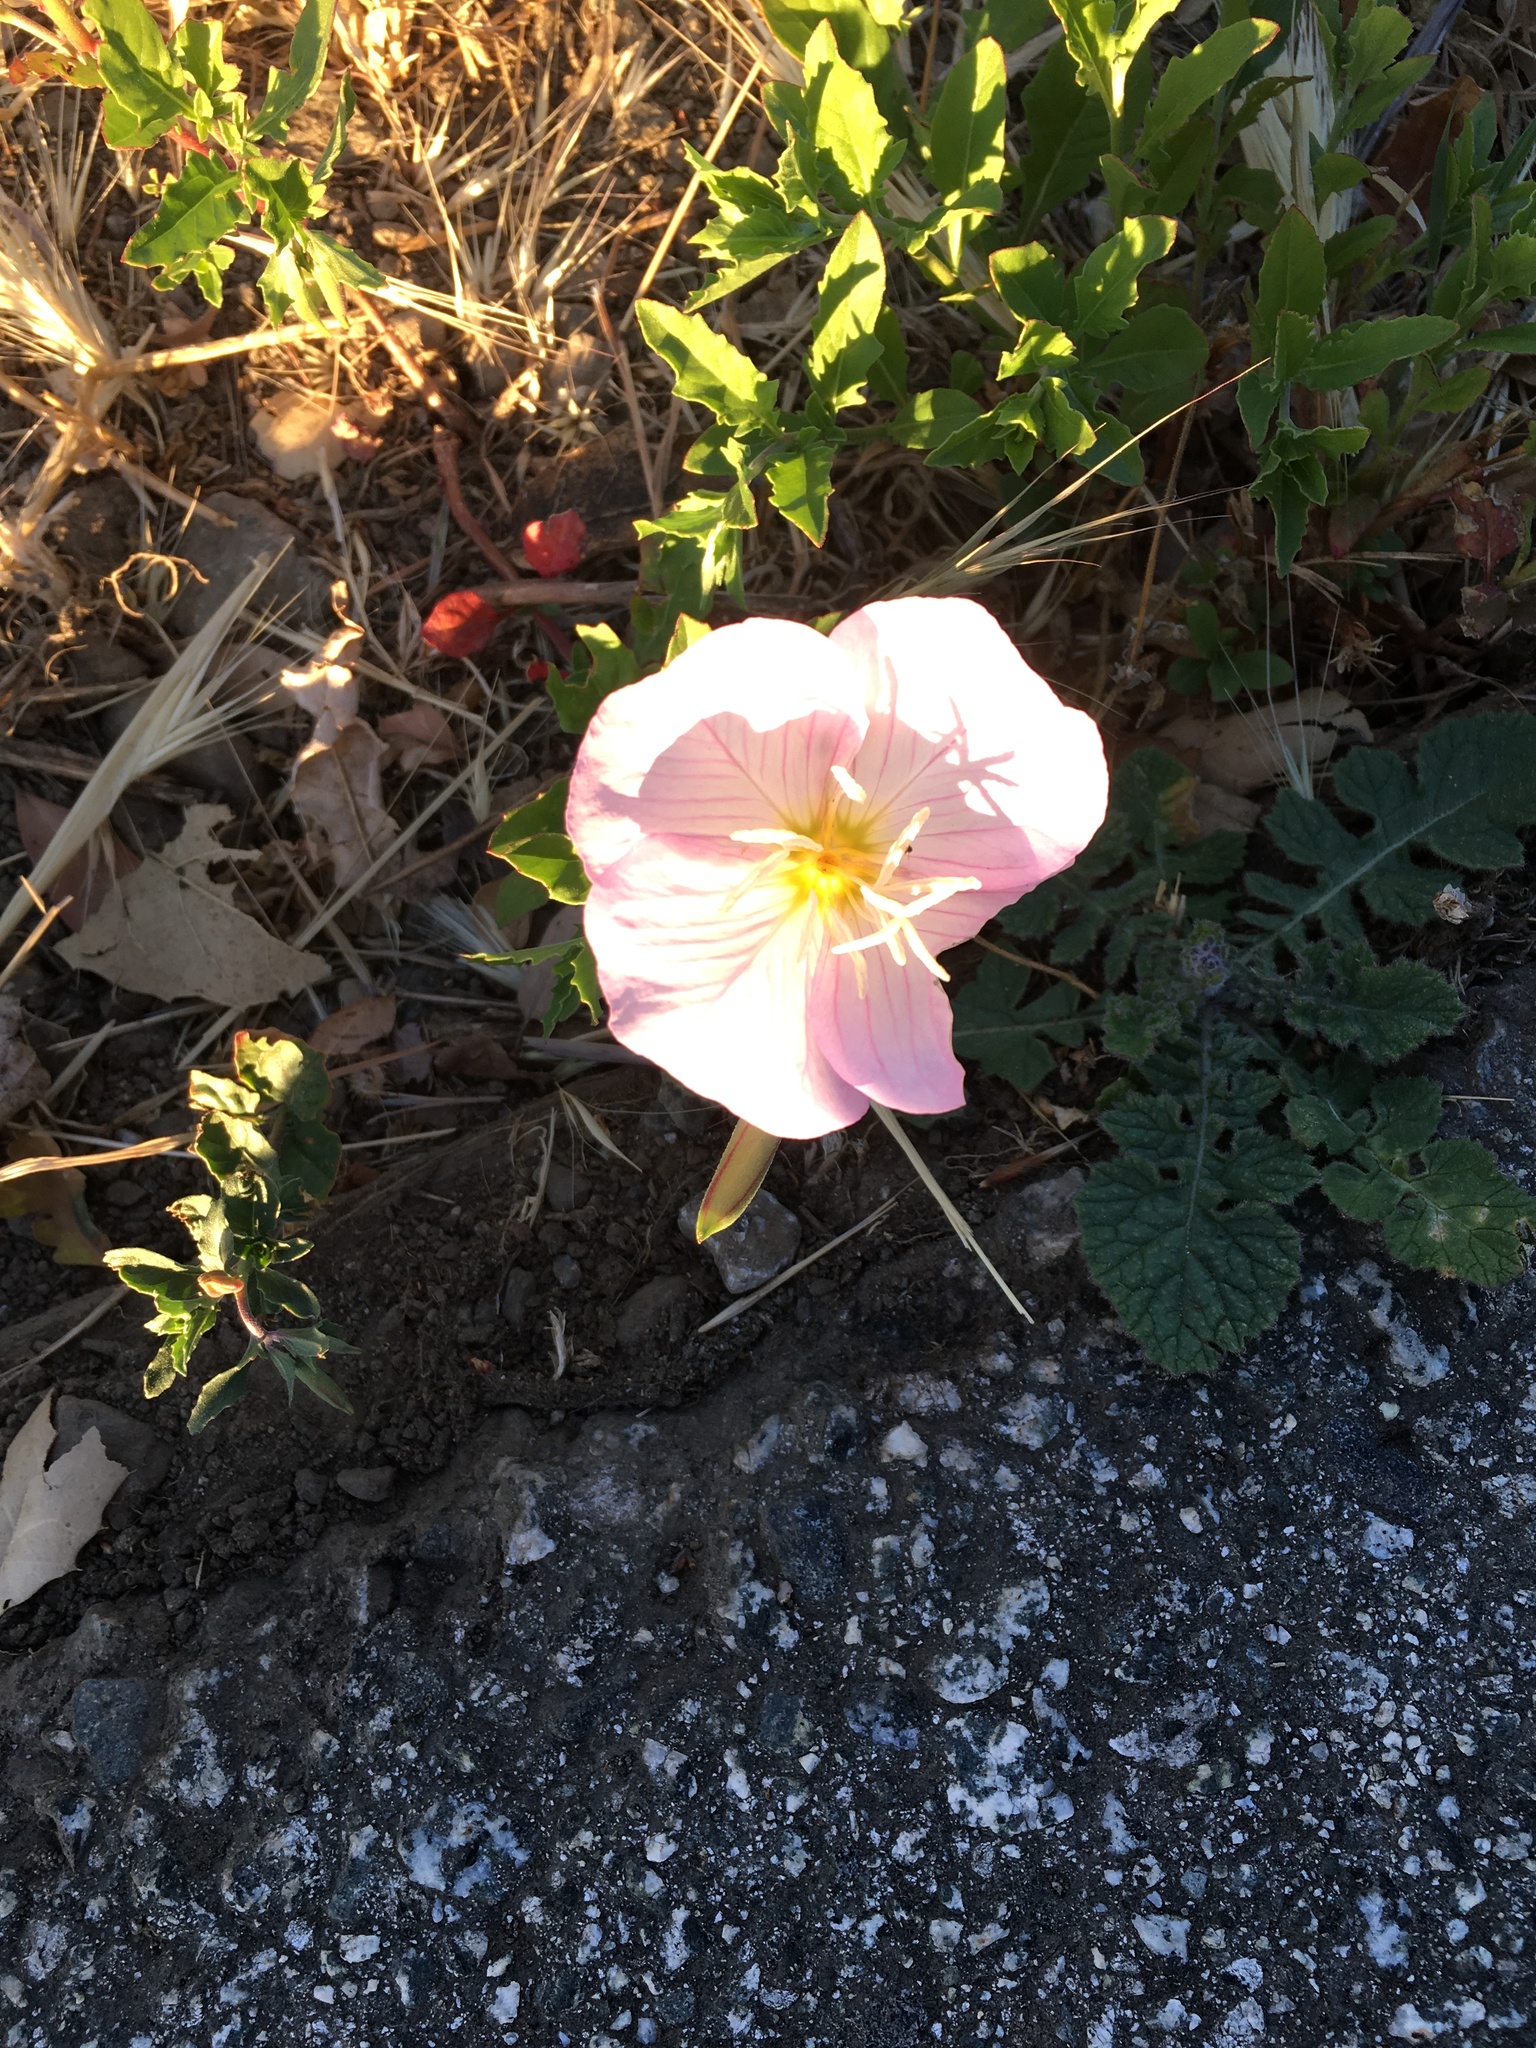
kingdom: Plantae
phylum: Tracheophyta
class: Magnoliopsida
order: Myrtales
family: Onagraceae
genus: Oenothera
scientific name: Oenothera speciosa
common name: White evening-primrose
